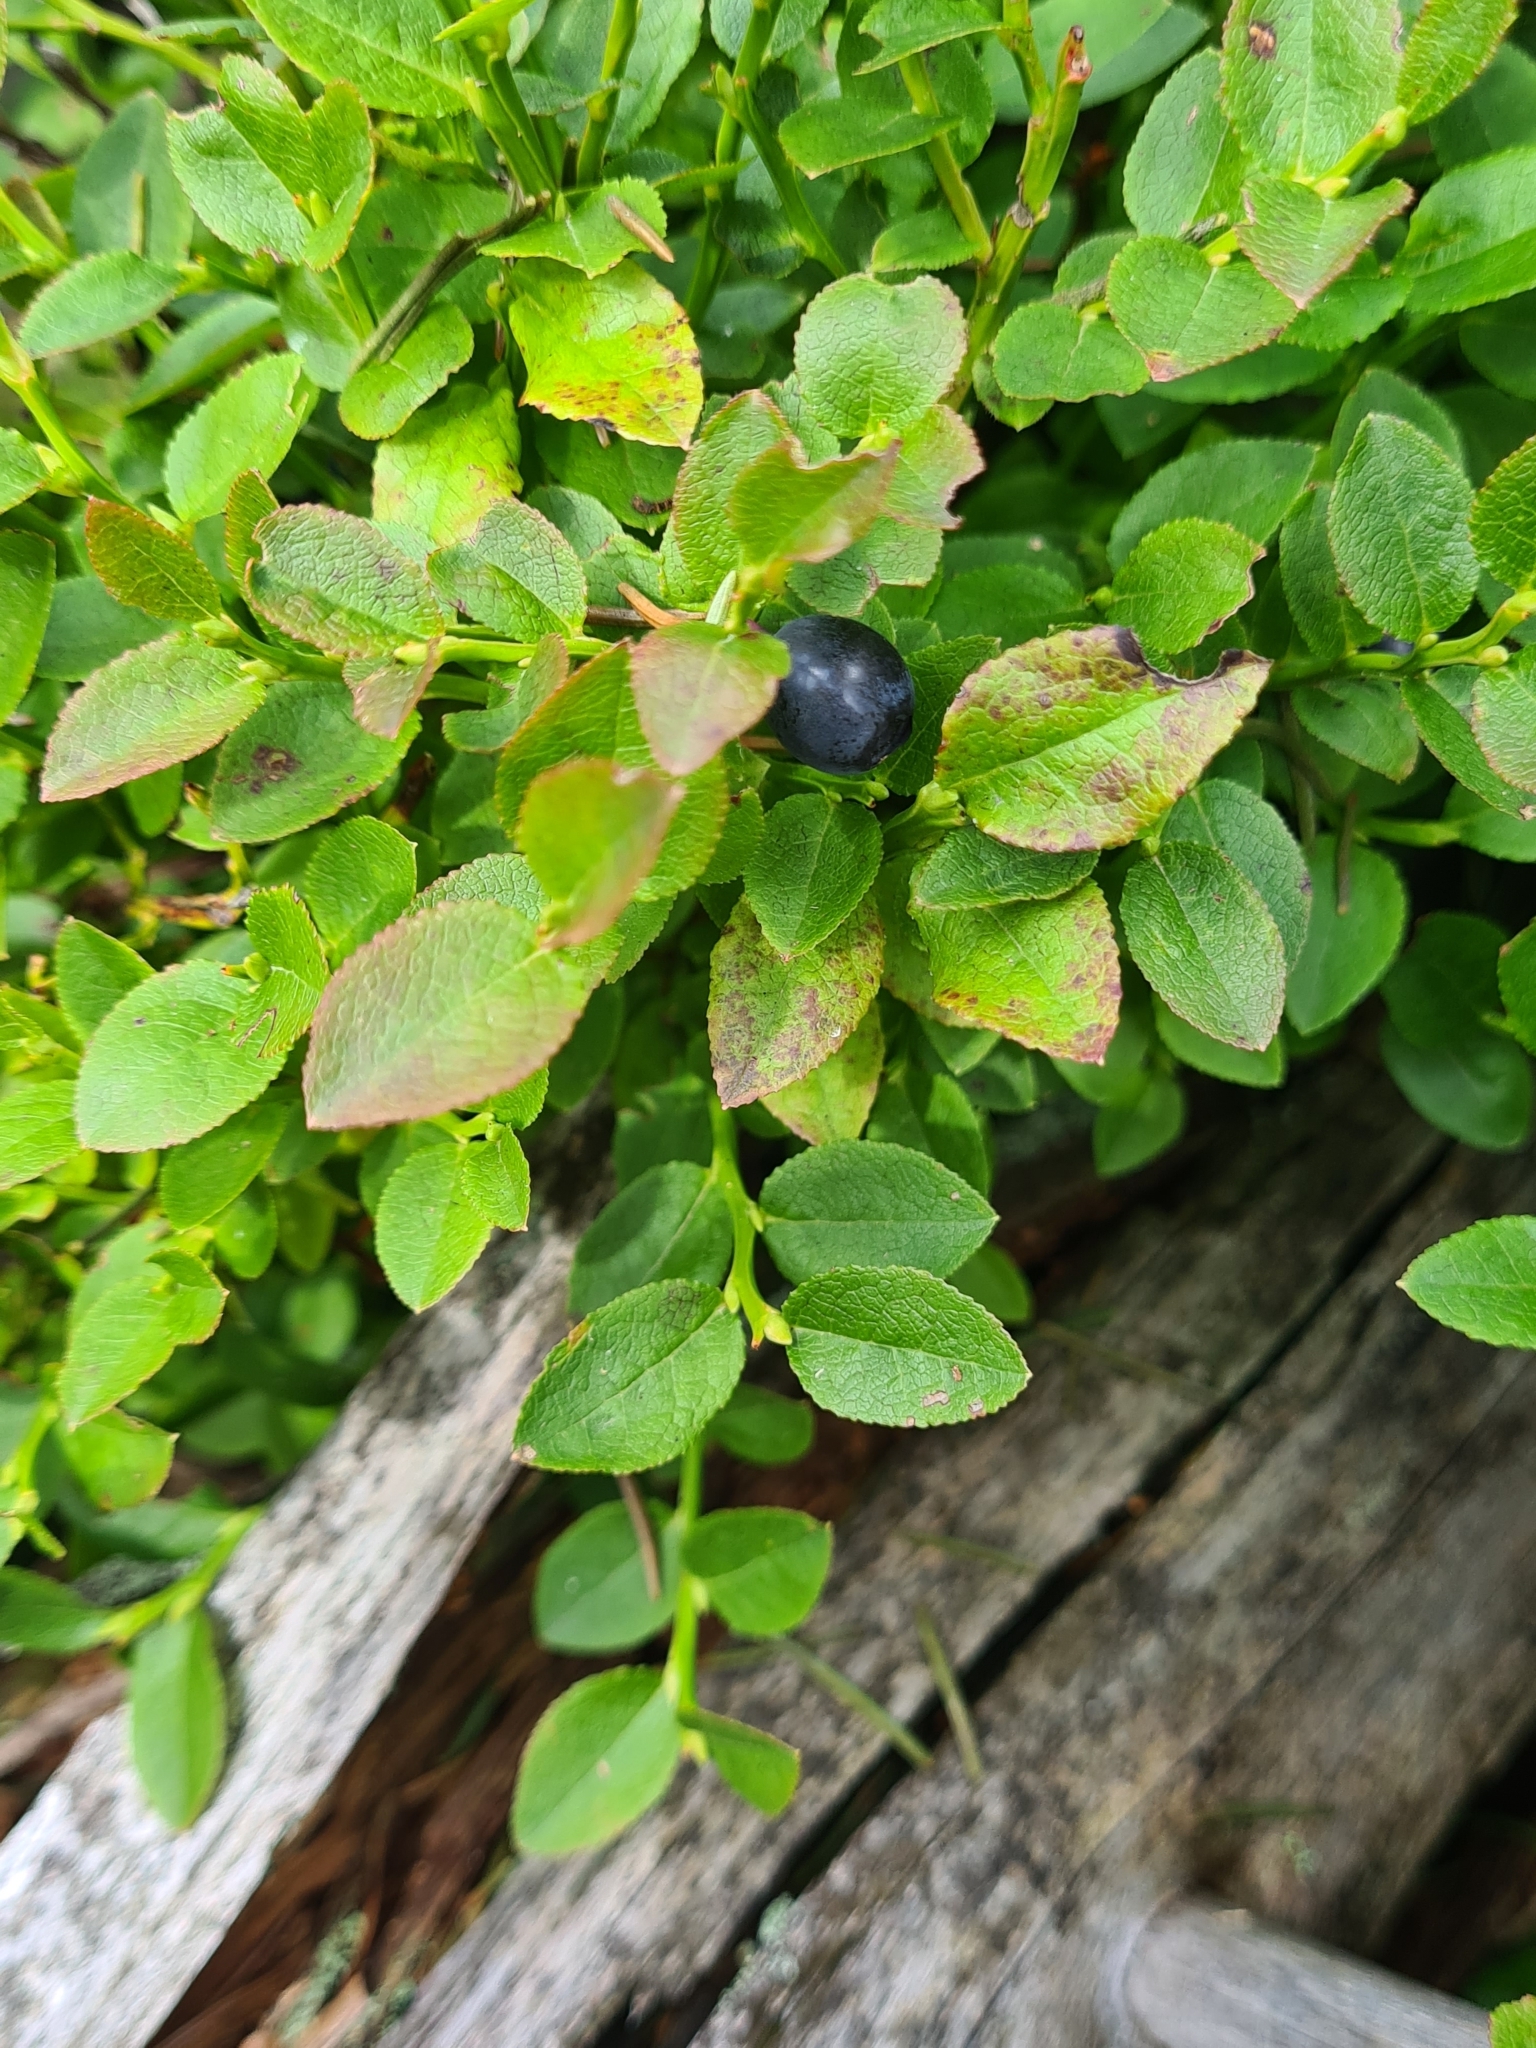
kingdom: Plantae
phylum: Tracheophyta
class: Magnoliopsida
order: Ericales
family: Ericaceae
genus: Vaccinium
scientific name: Vaccinium myrtillus
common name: Bilberry
